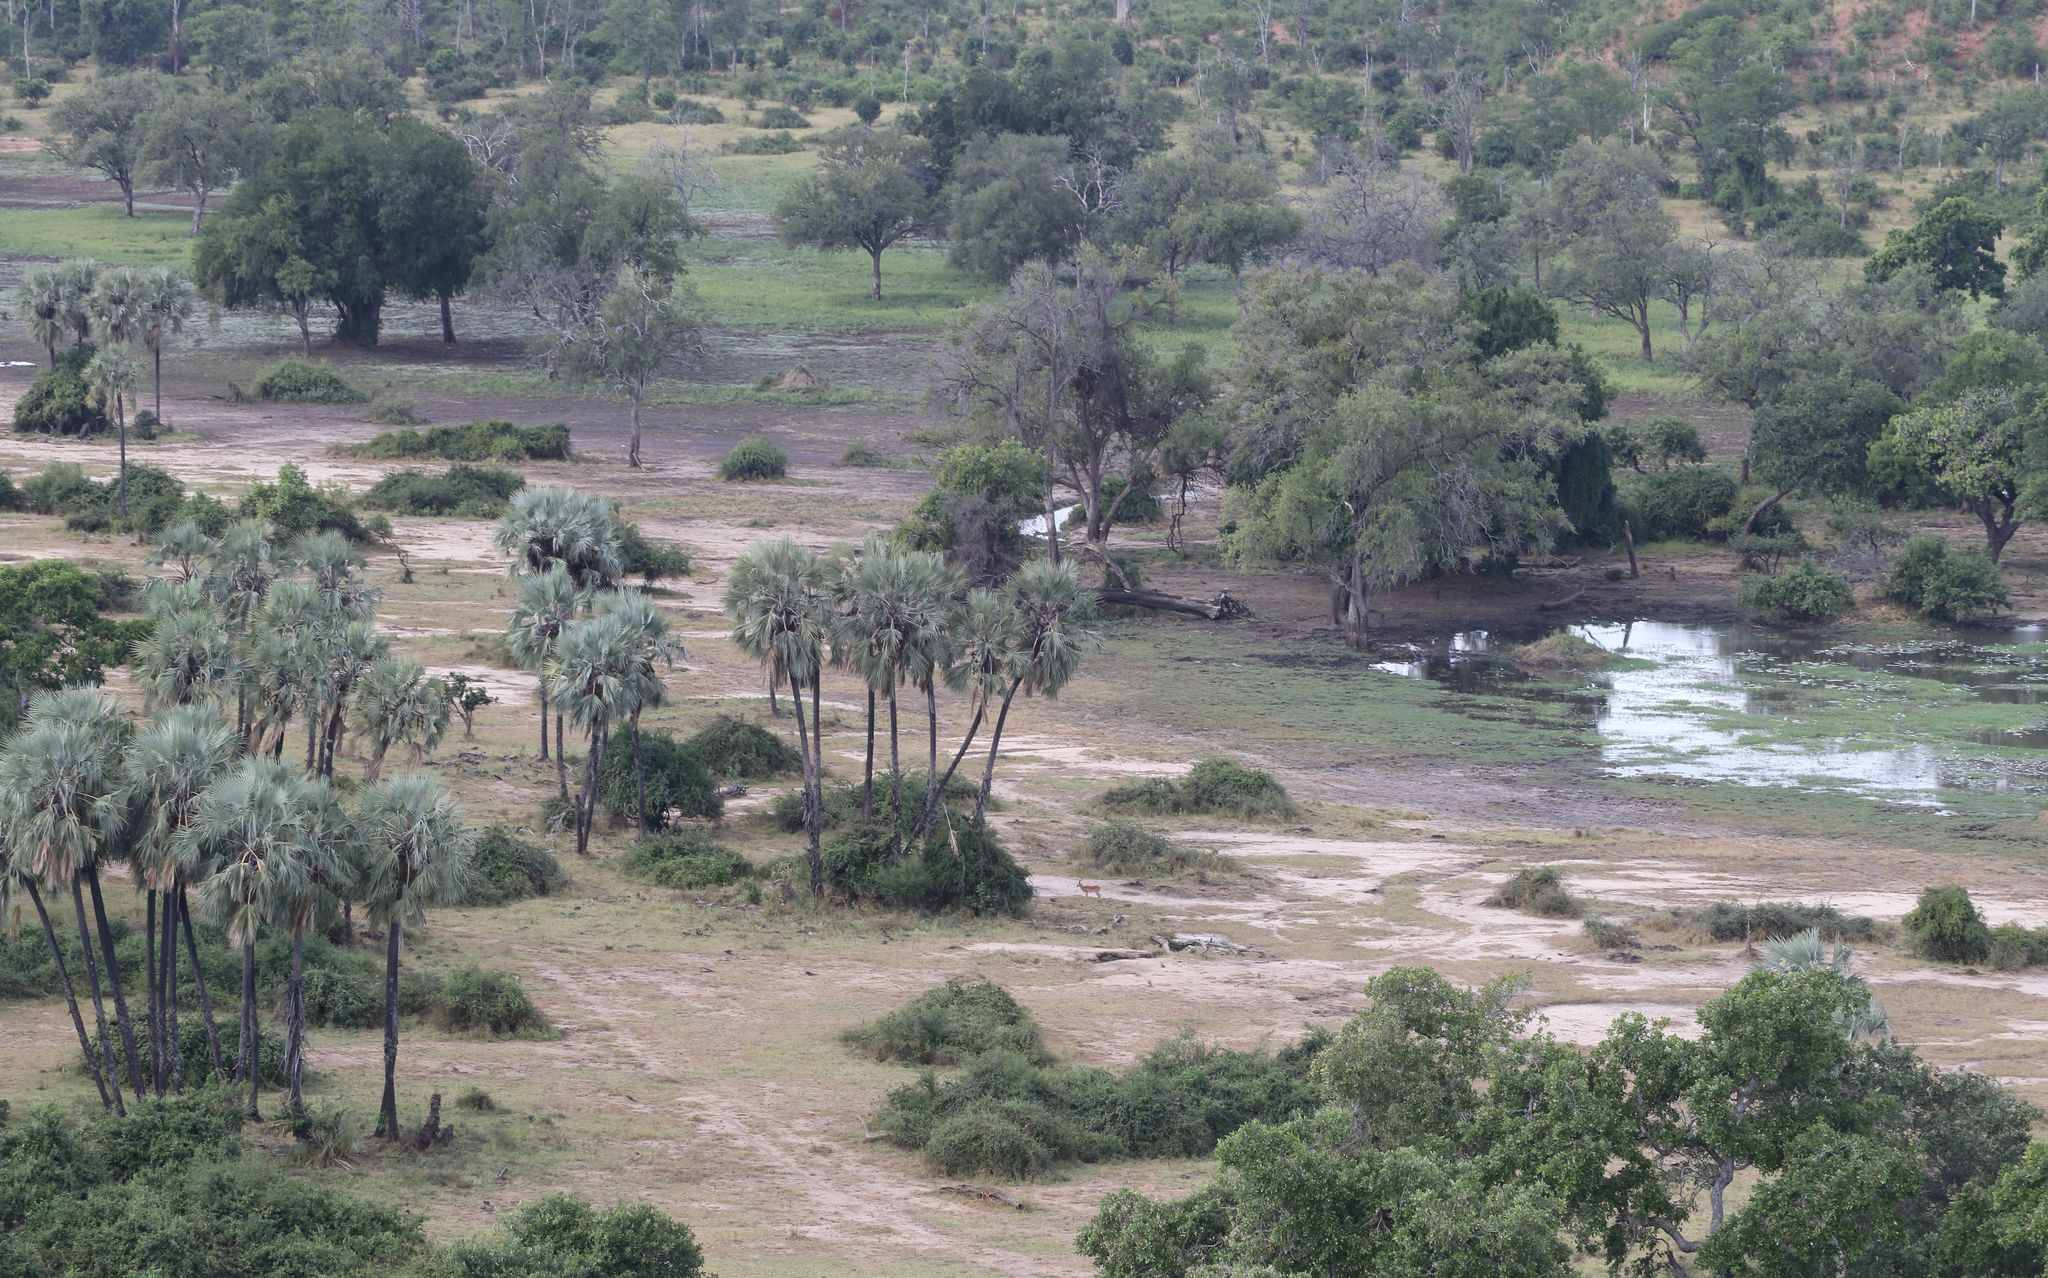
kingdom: Animalia
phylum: Chordata
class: Mammalia
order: Artiodactyla
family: Bovidae
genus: Aepyceros
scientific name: Aepyceros melampus
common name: Impala
